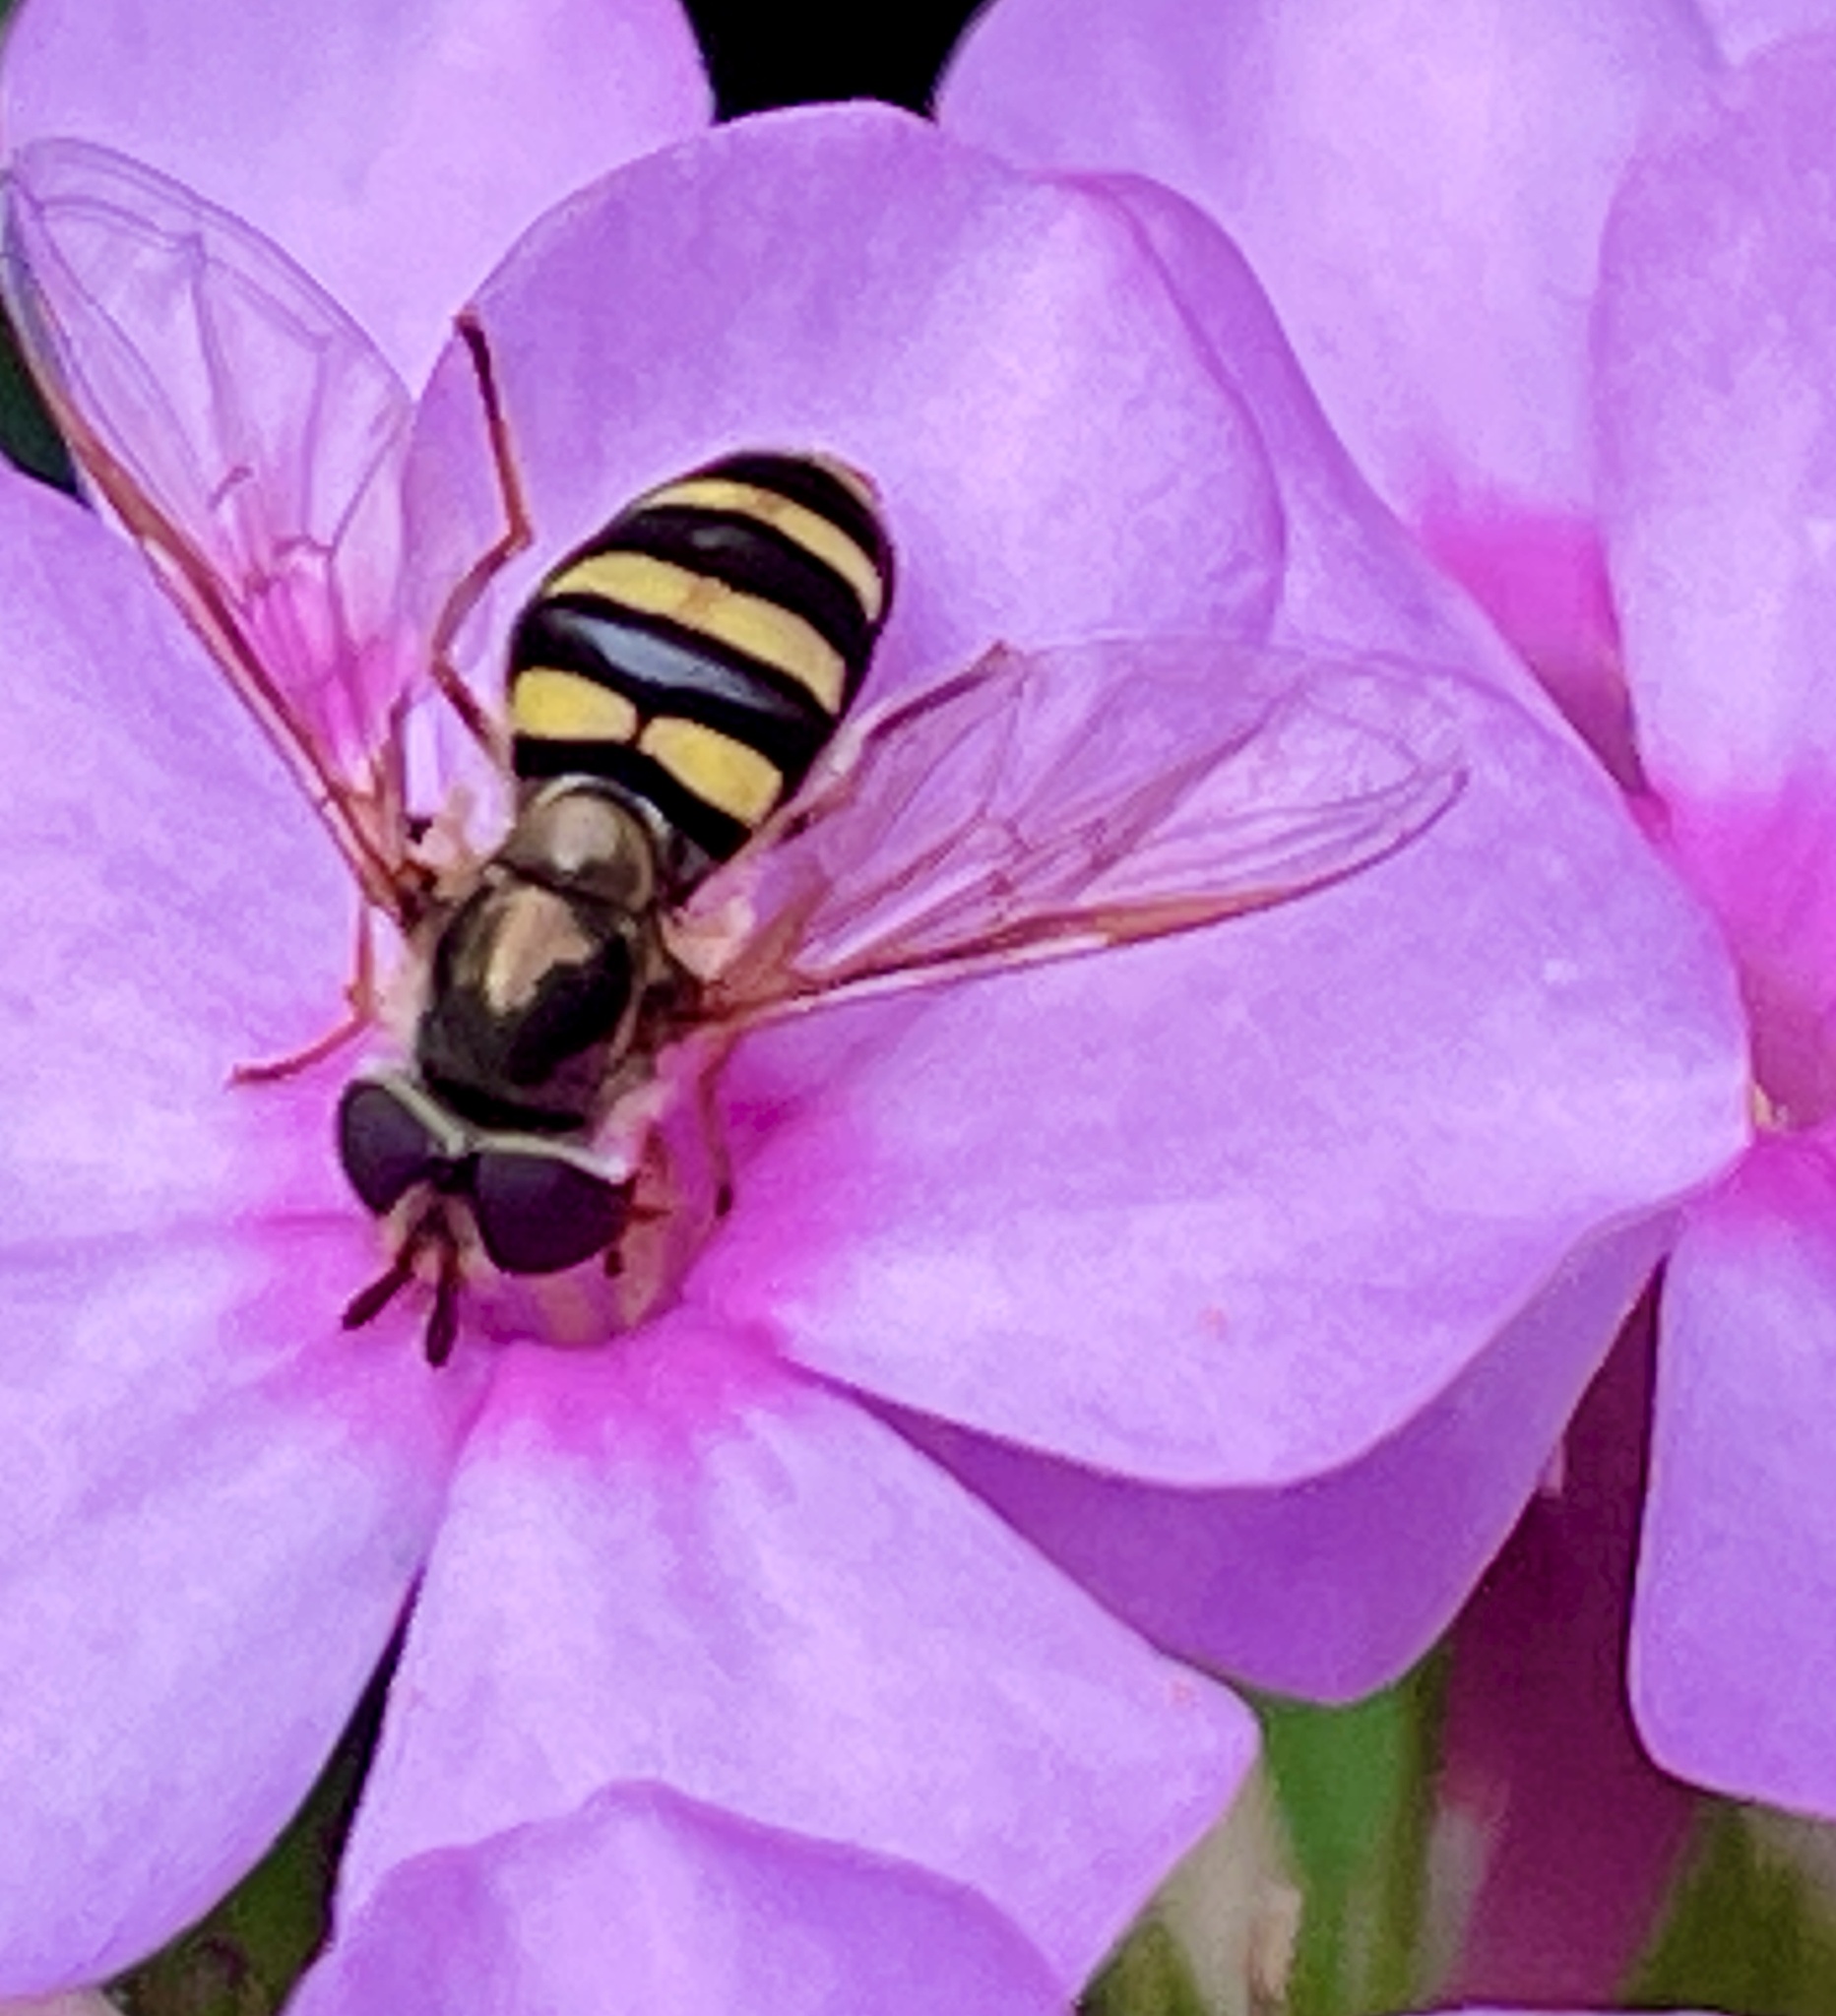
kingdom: Animalia
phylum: Arthropoda
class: Insecta
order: Diptera
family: Syrphidae
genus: Eupeodes
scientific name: Eupeodes
